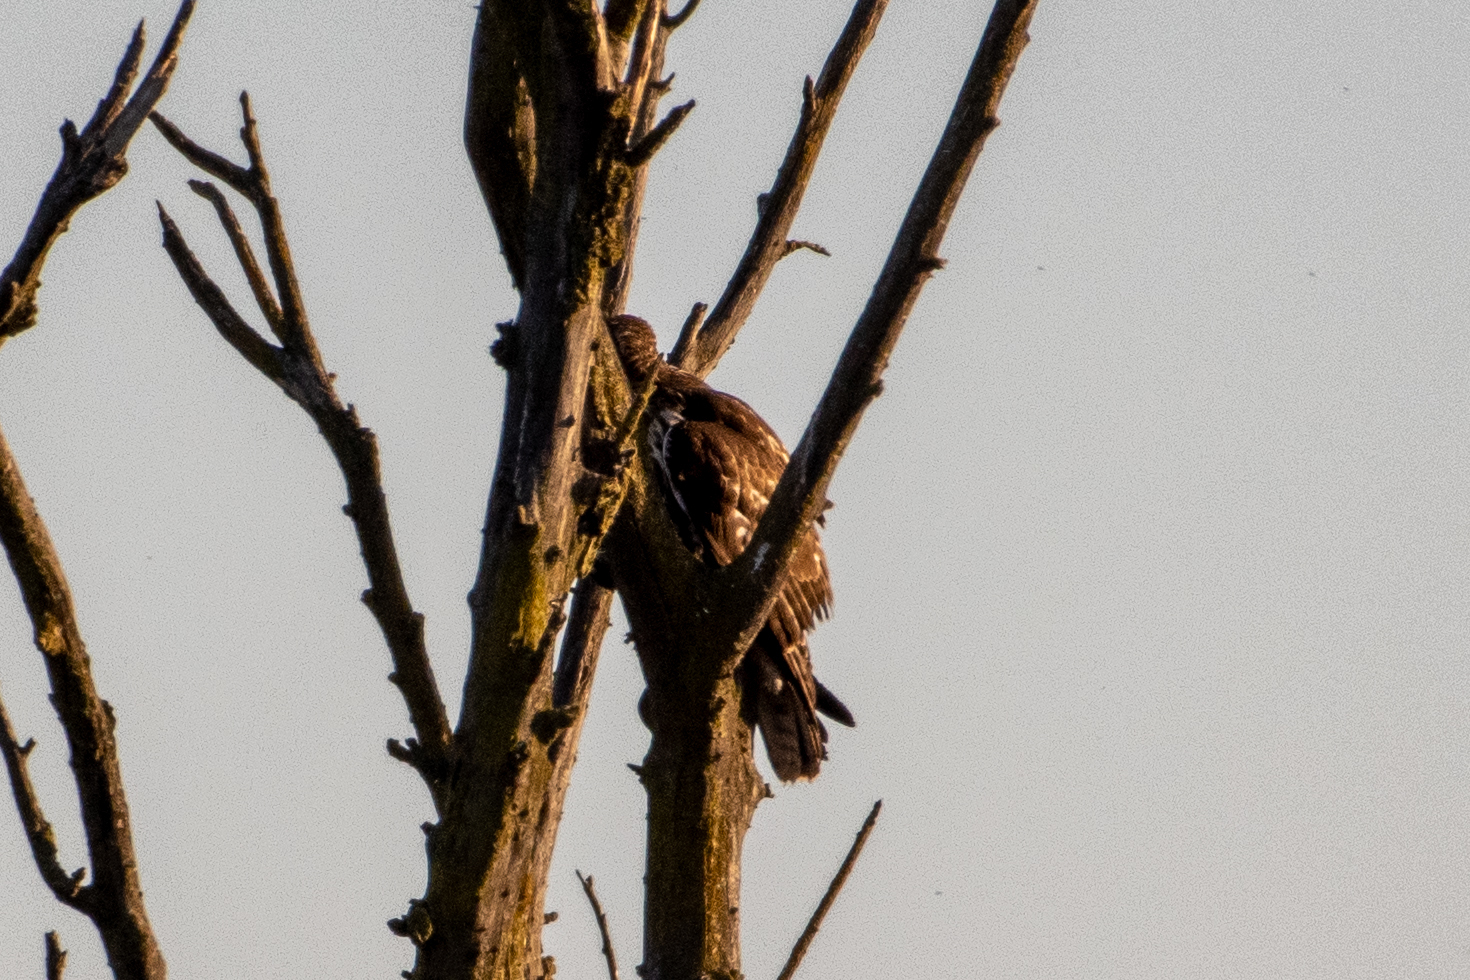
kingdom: Animalia
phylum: Chordata
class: Aves
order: Accipitriformes
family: Accipitridae
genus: Buteo
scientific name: Buteo jamaicensis
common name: Red-tailed hawk
